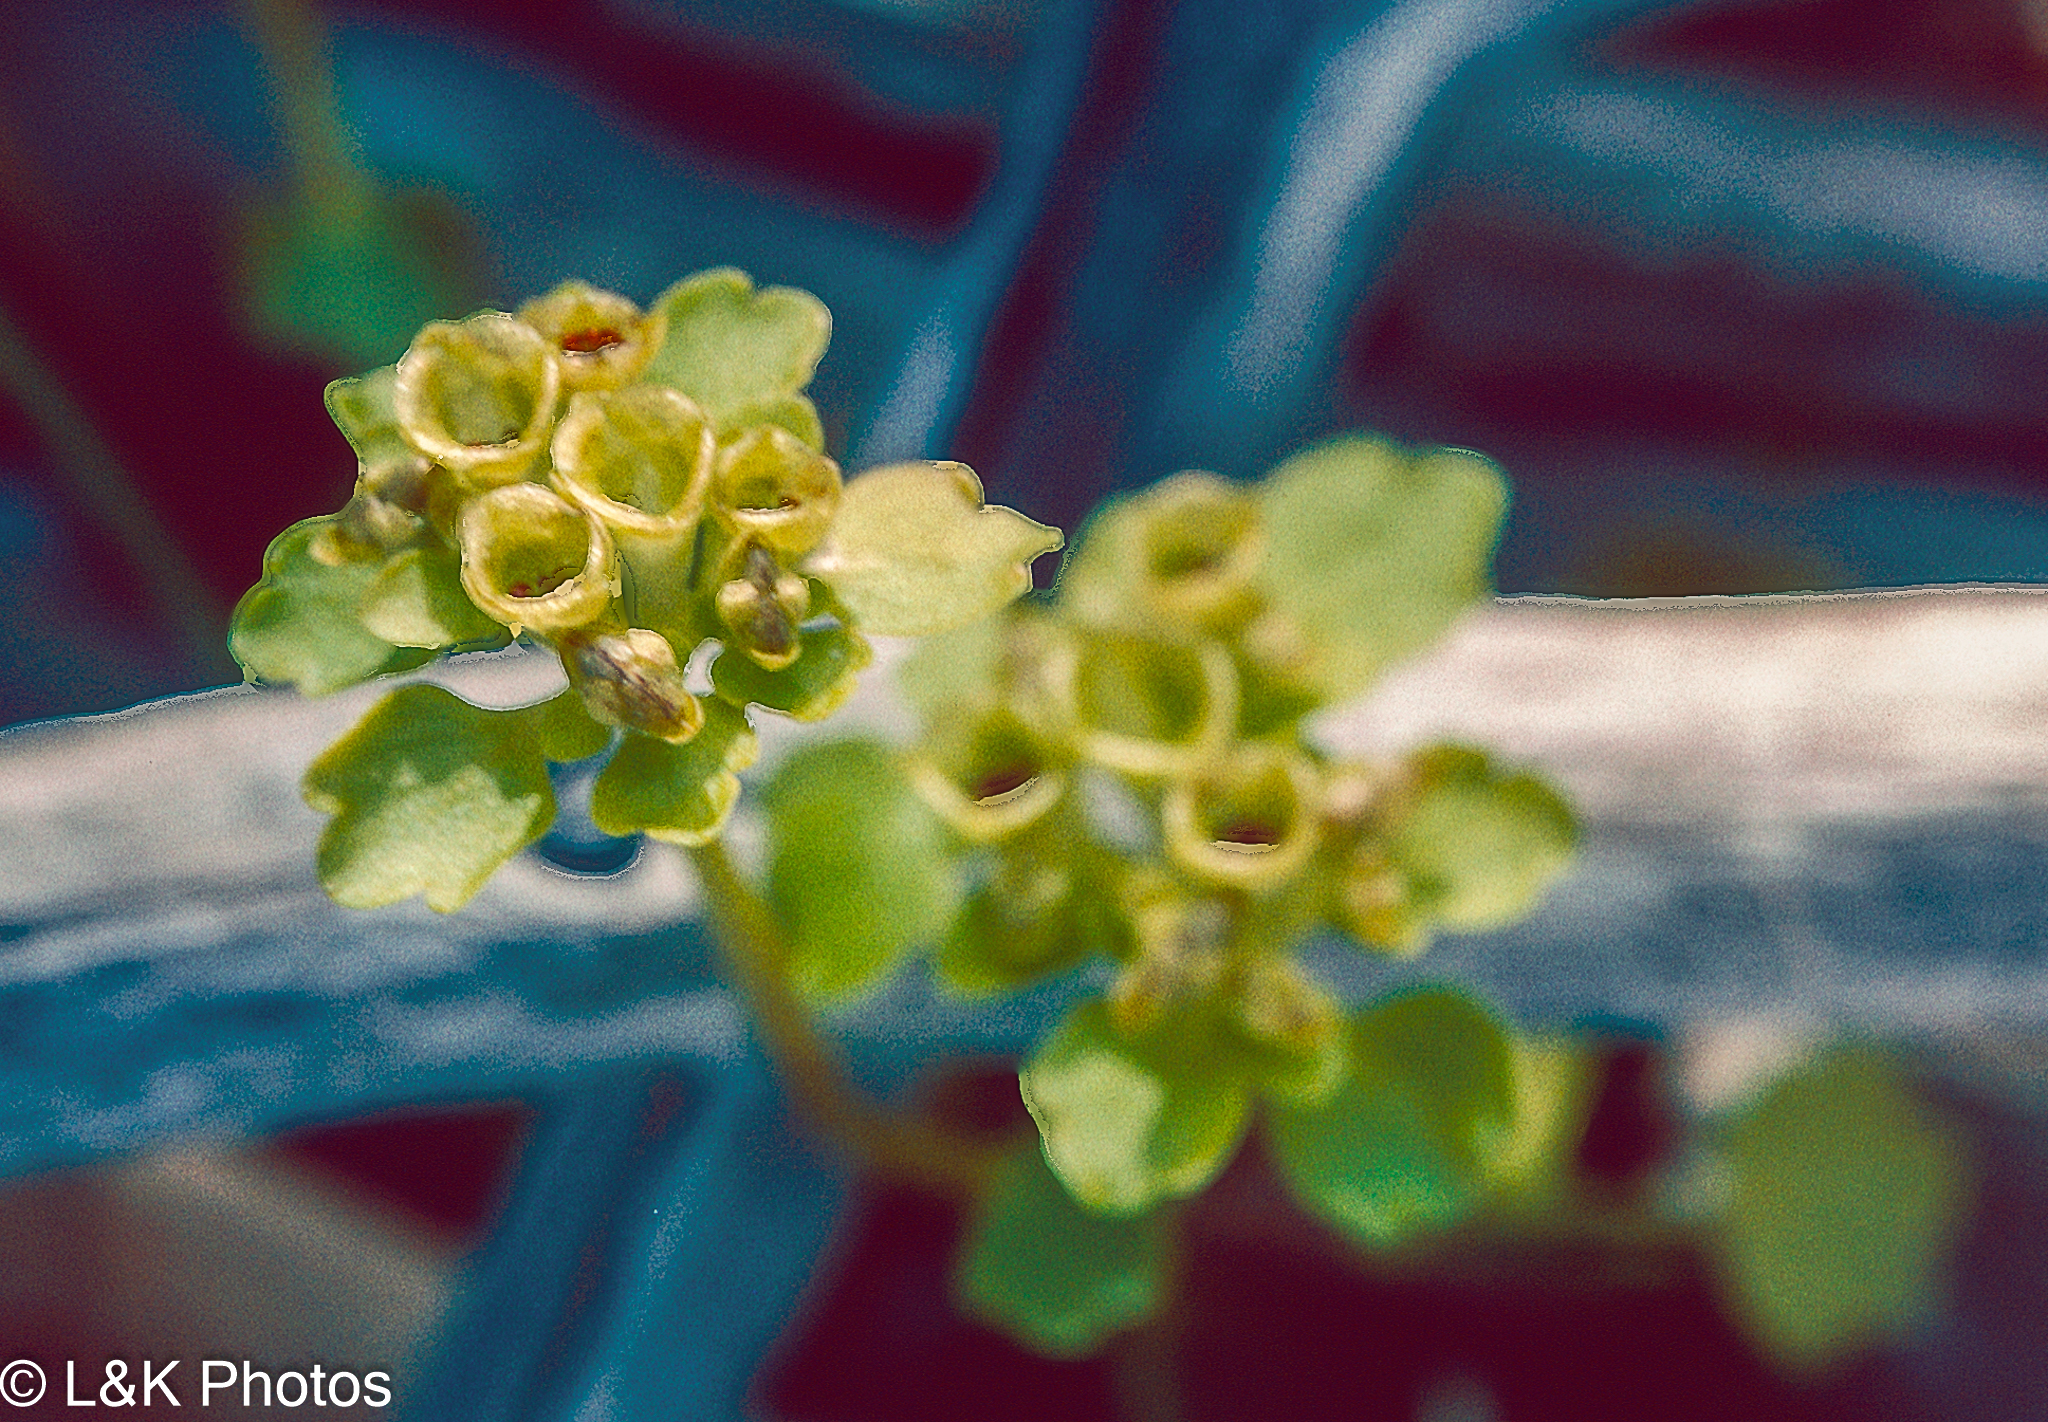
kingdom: Plantae
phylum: Tracheophyta
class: Magnoliopsida
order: Saxifragales
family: Saxifragaceae
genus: Chrysosplenium
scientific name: Chrysosplenium tetrandrum
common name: Green saxifrage
